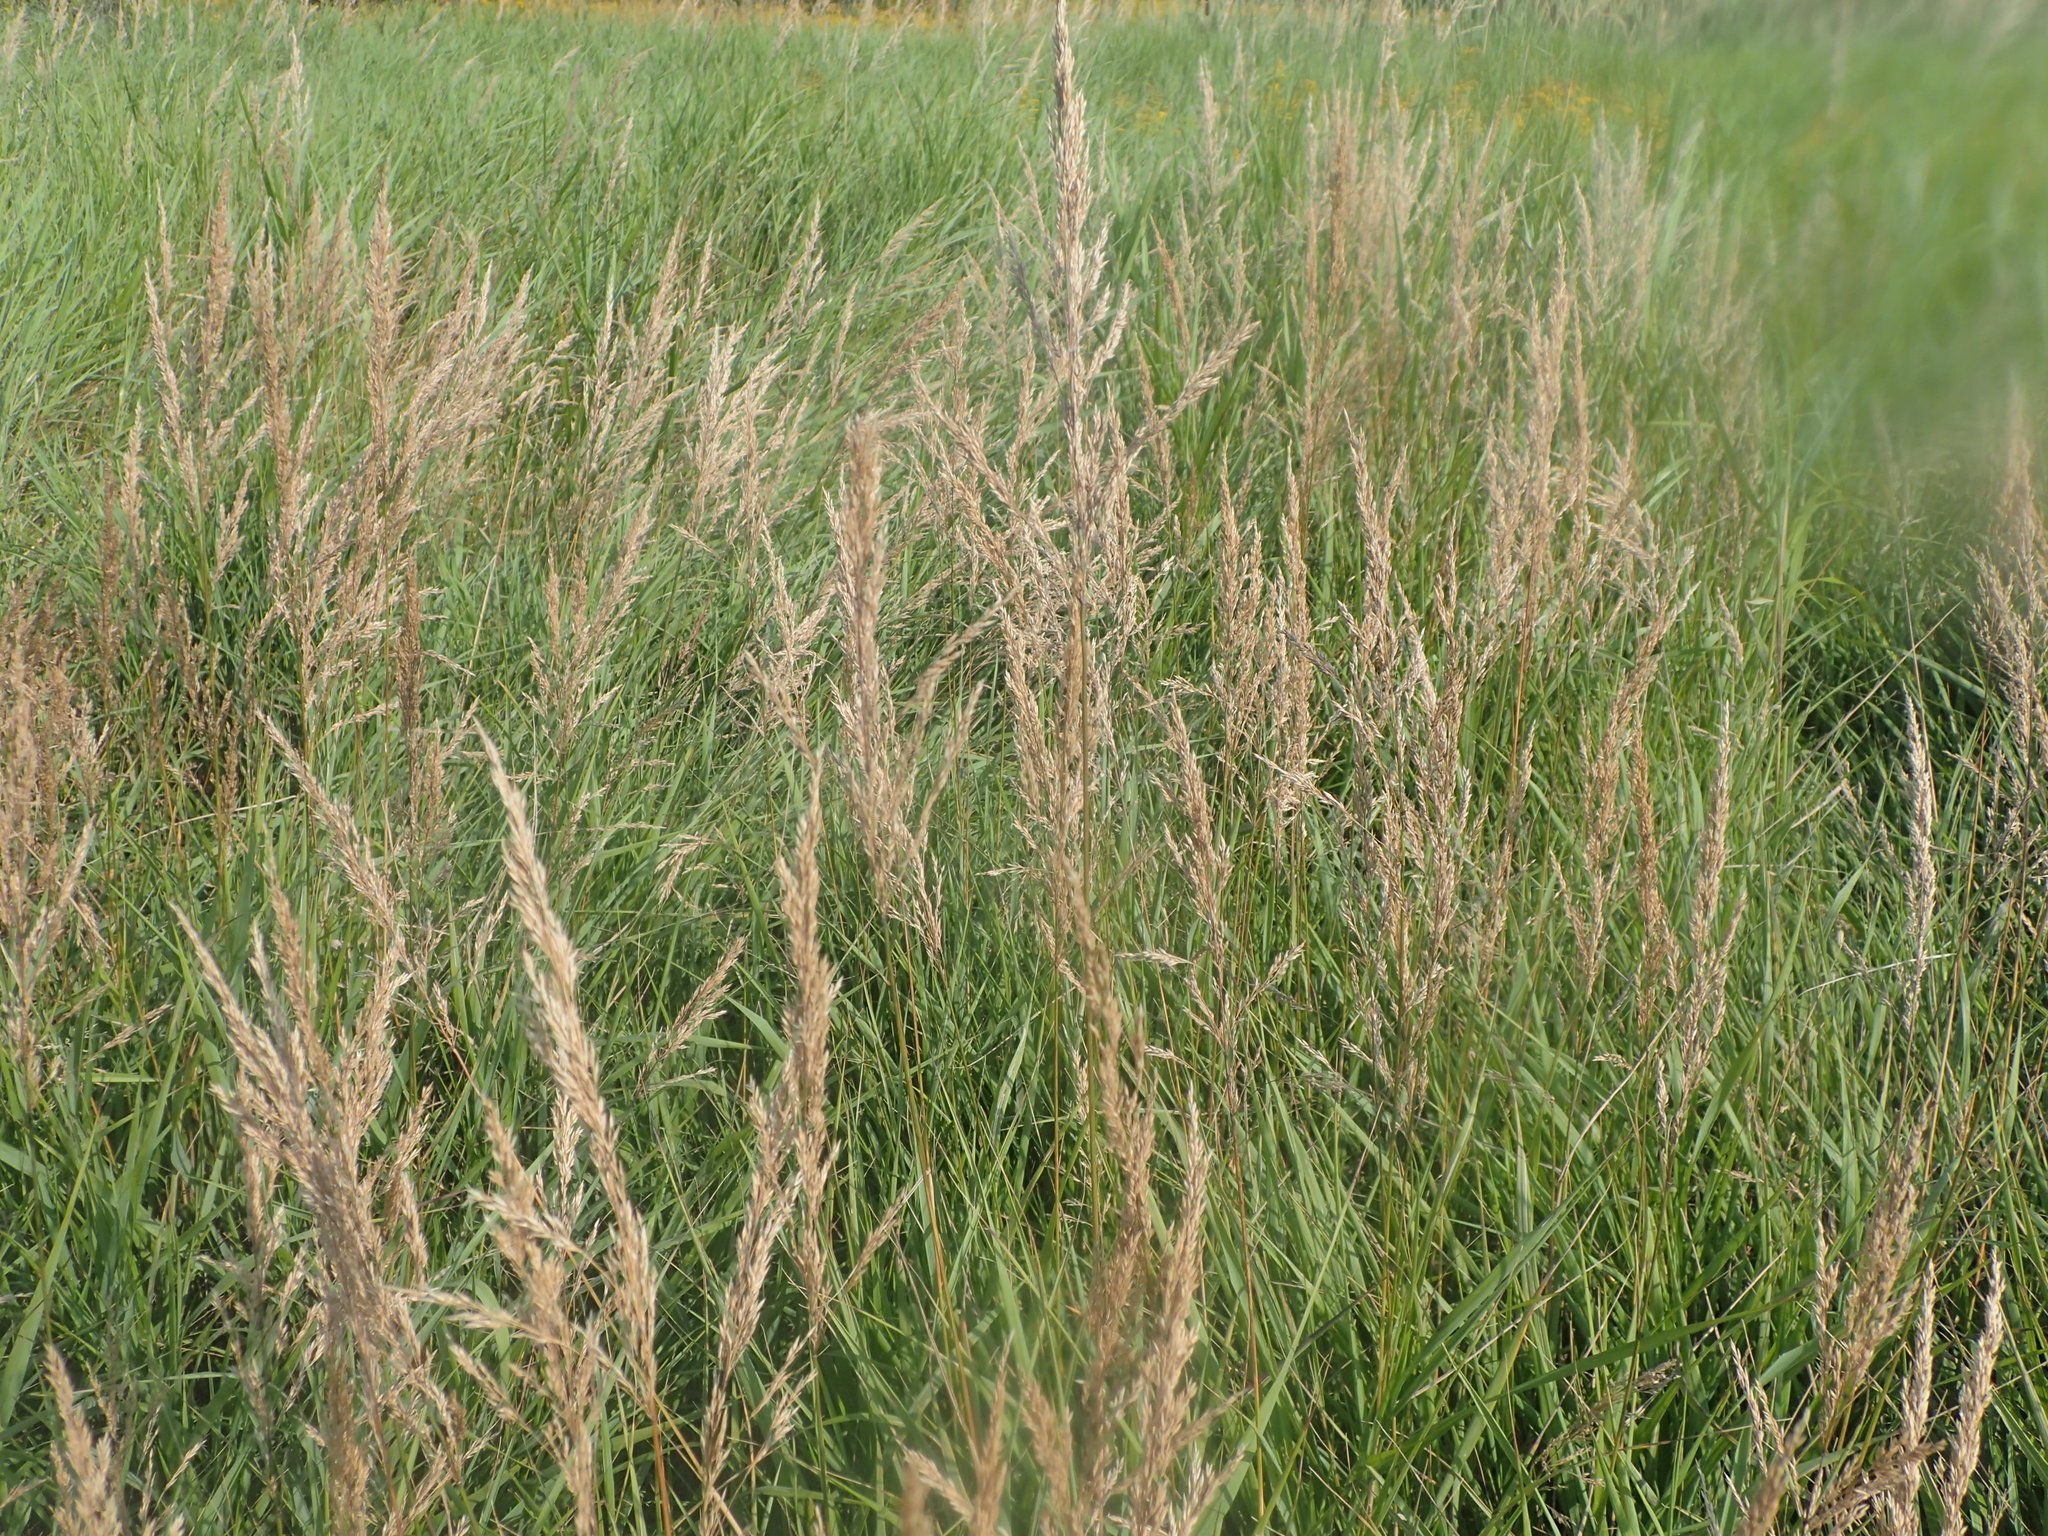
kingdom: Plantae
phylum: Tracheophyta
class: Liliopsida
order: Poales
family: Poaceae
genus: Phalaris
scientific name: Phalaris arundinacea
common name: Reed canary-grass
